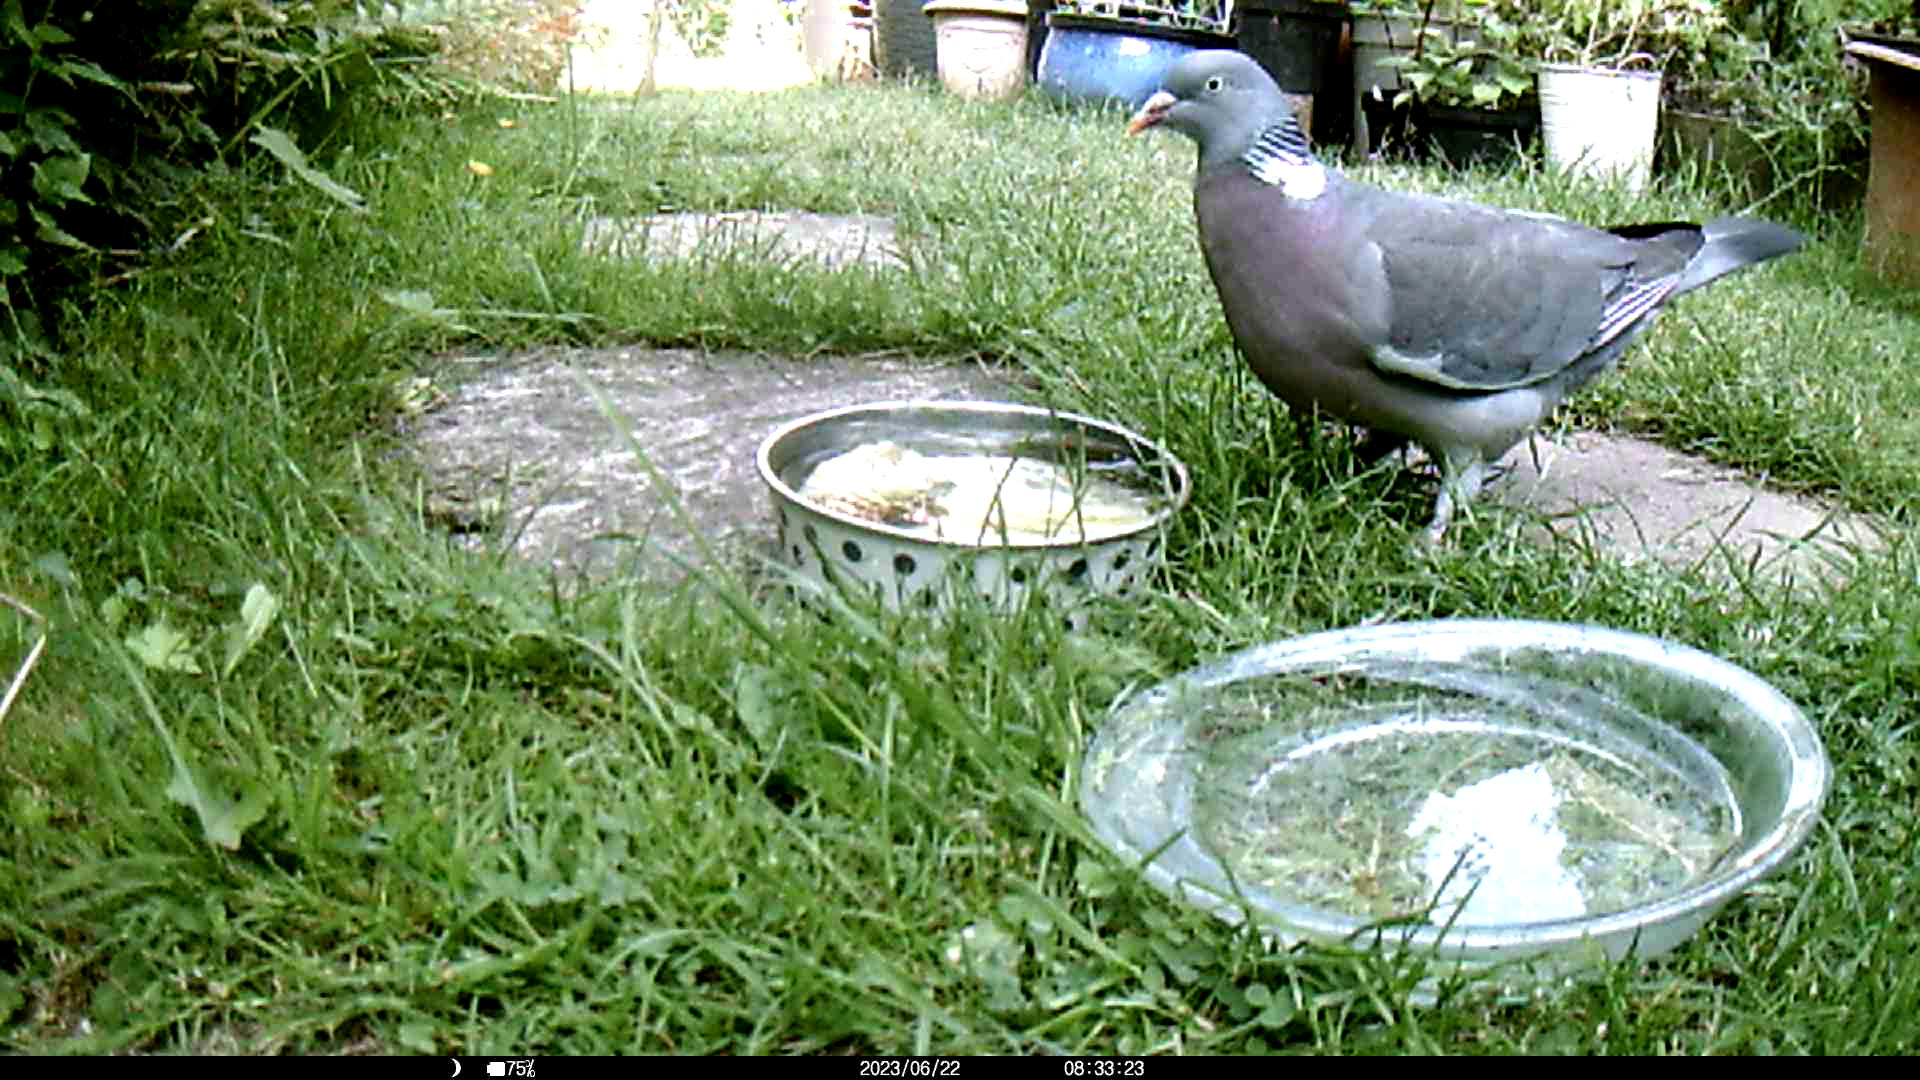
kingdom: Animalia
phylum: Chordata
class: Aves
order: Columbiformes
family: Columbidae
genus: Columba
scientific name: Columba palumbus
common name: Common wood pigeon
